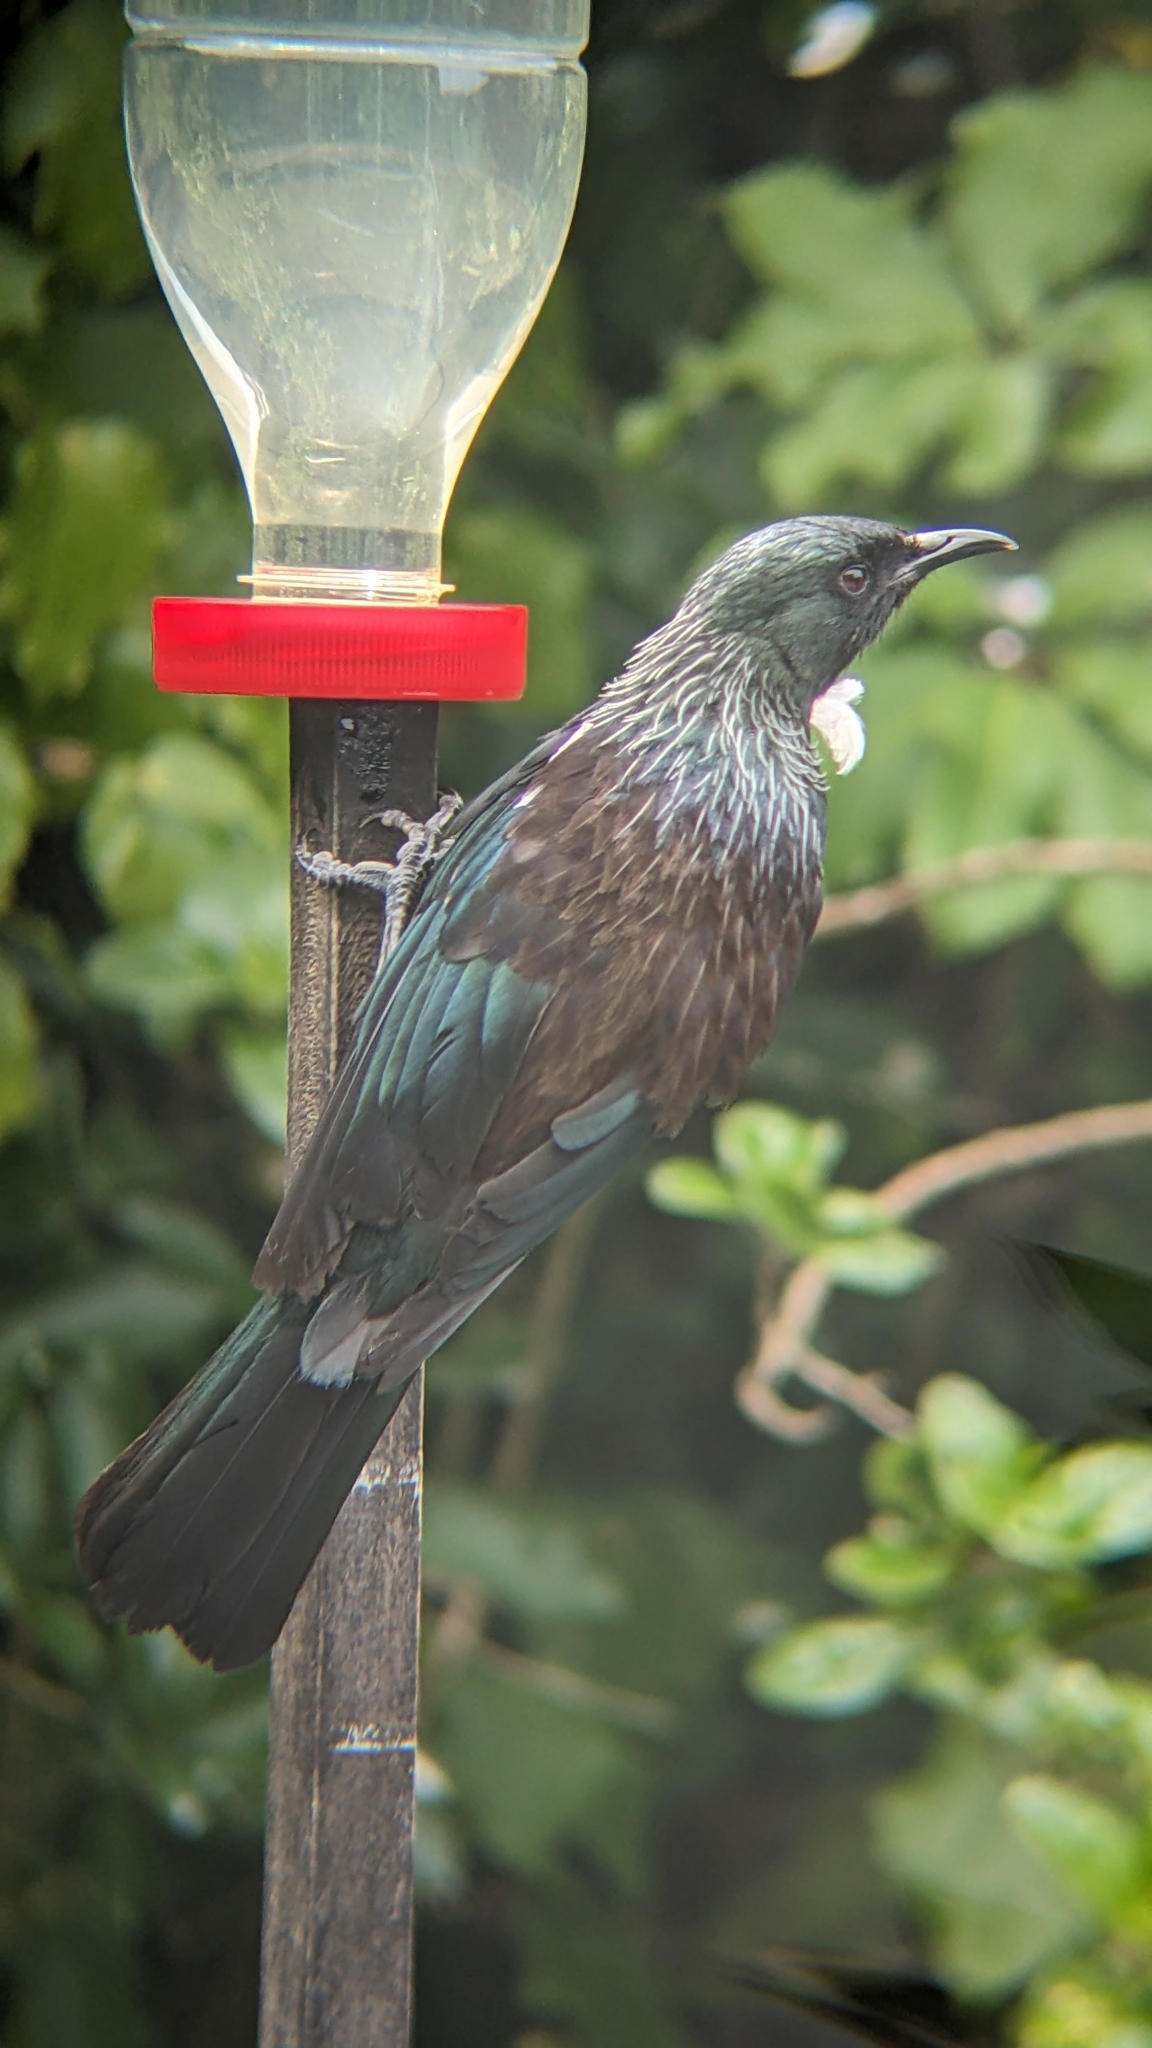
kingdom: Animalia
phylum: Chordata
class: Aves
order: Passeriformes
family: Meliphagidae
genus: Prosthemadera
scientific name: Prosthemadera novaeseelandiae
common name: Tui
